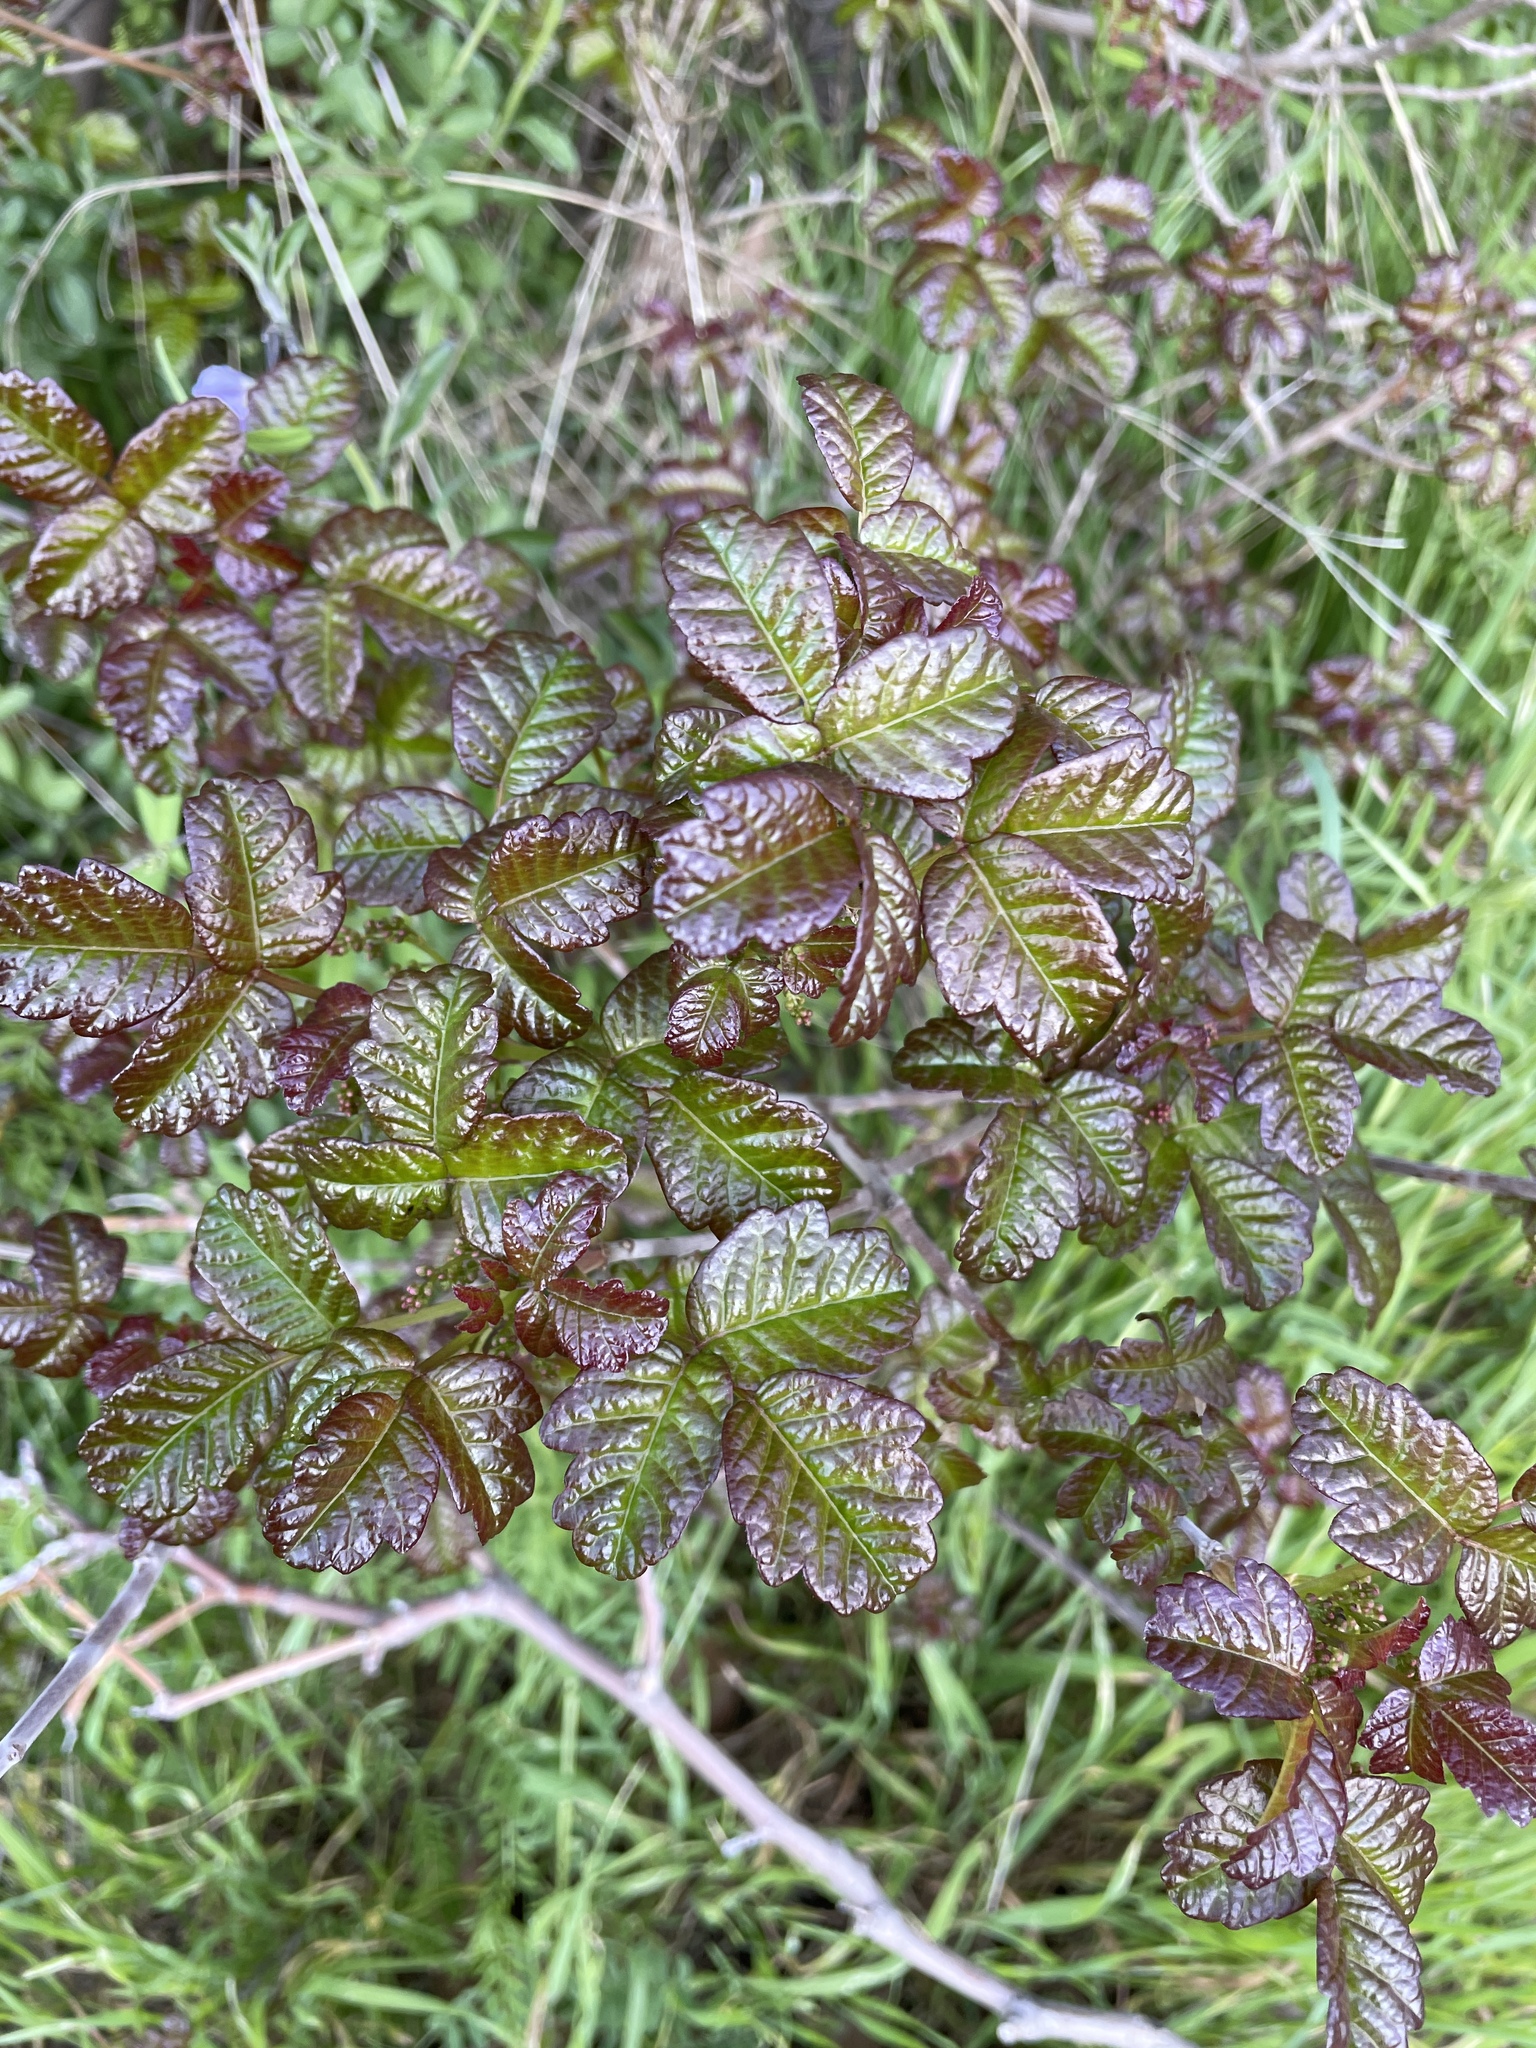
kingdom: Plantae
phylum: Tracheophyta
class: Magnoliopsida
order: Sapindales
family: Anacardiaceae
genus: Toxicodendron
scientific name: Toxicodendron diversilobum
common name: Pacific poison-oak
